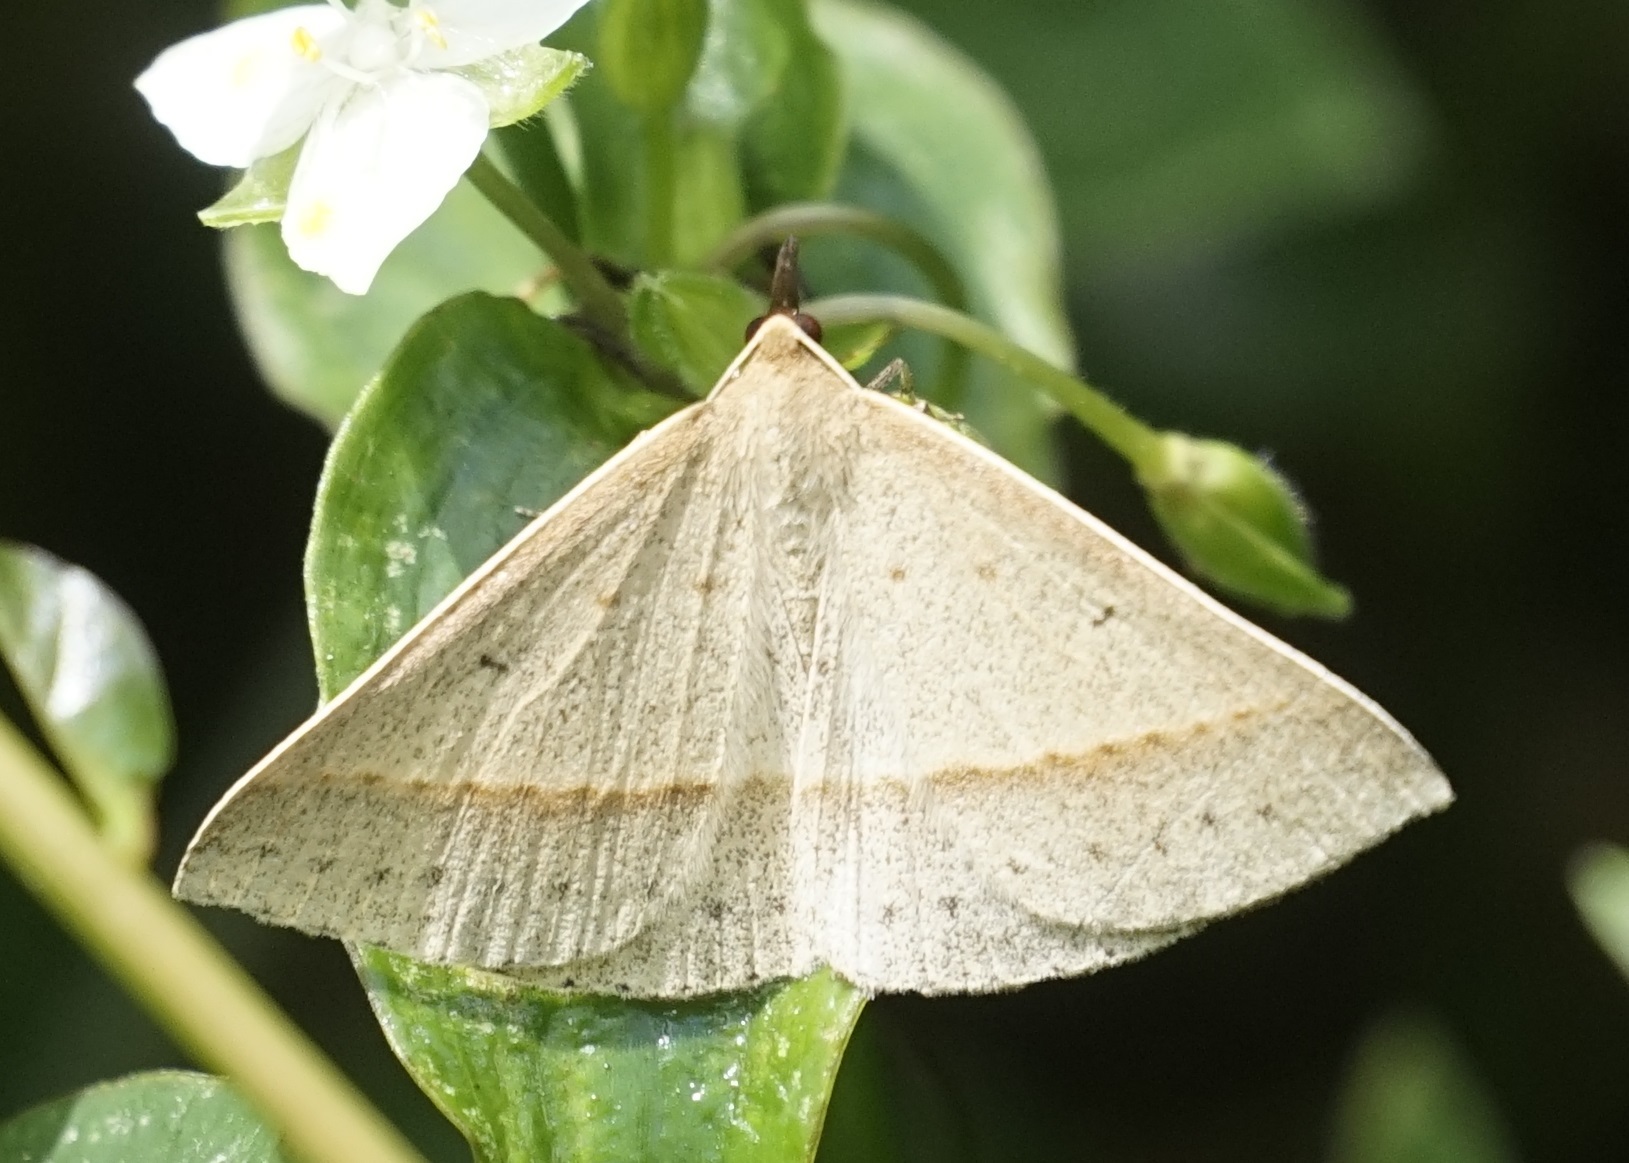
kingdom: Animalia
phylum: Arthropoda
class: Insecta
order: Lepidoptera
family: Geometridae
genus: Epidesmia
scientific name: Epidesmia tryxaria
